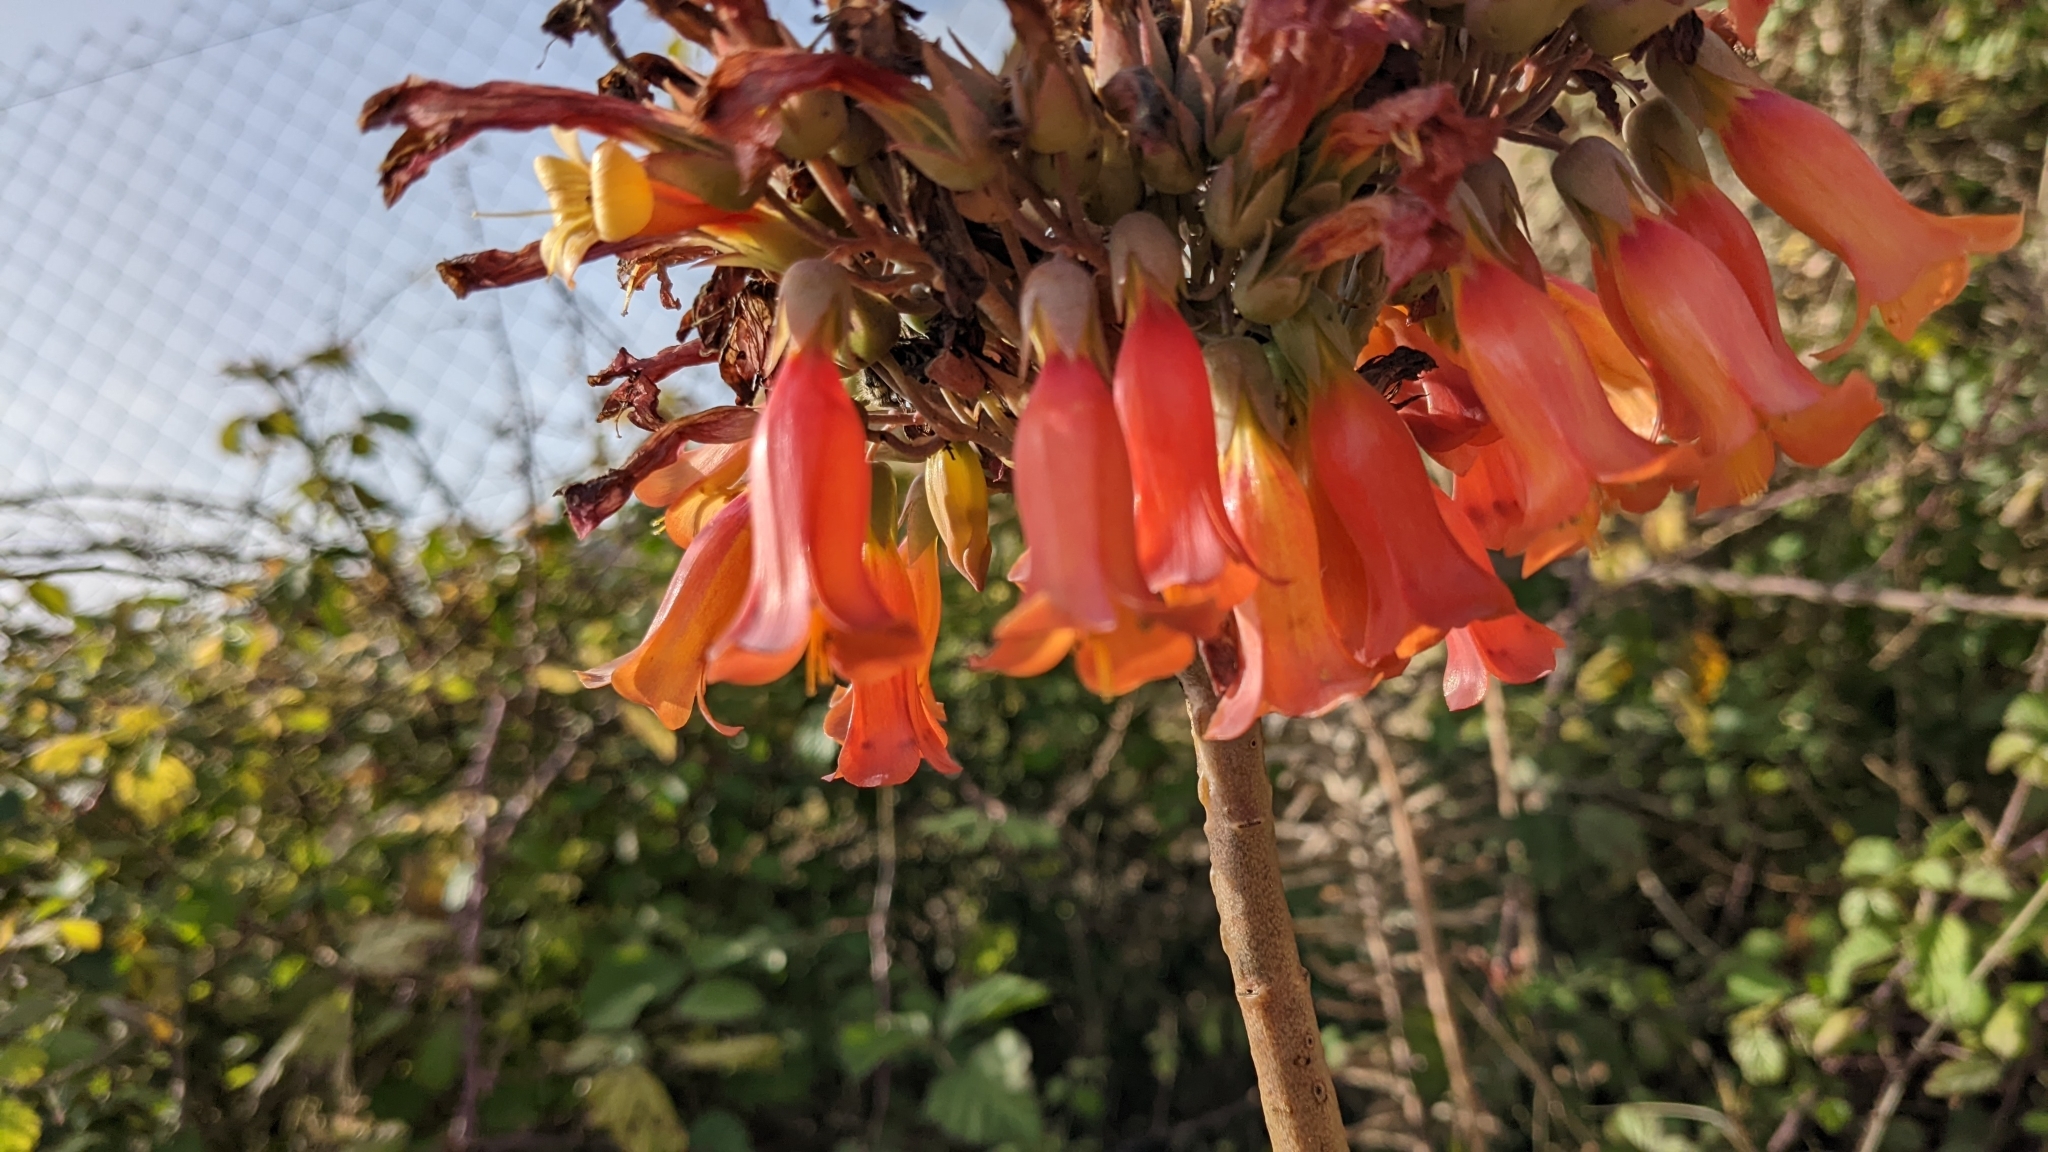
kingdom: Chromista
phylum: Ciliophora
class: Gymnostomatea
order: Spathidiida
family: Spathidiidae
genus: Bryophyllum
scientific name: Bryophyllum
